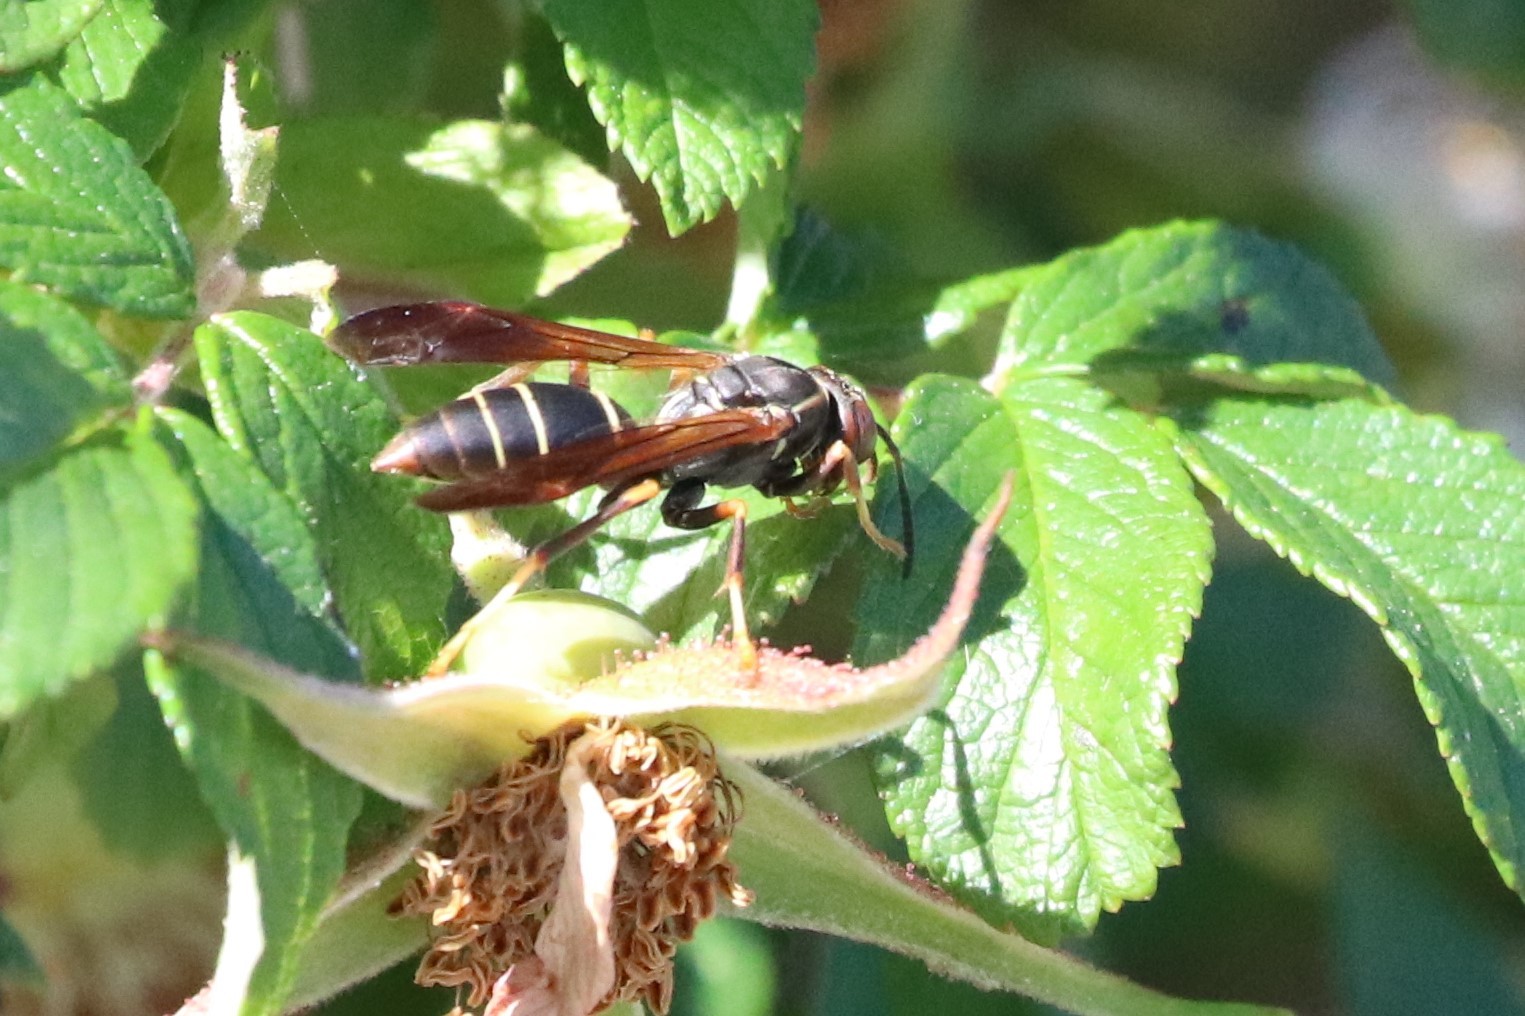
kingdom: Animalia
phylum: Arthropoda
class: Insecta
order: Hymenoptera
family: Eumenidae
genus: Polistes
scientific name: Polistes fuscatus
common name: Dark paper wasp
